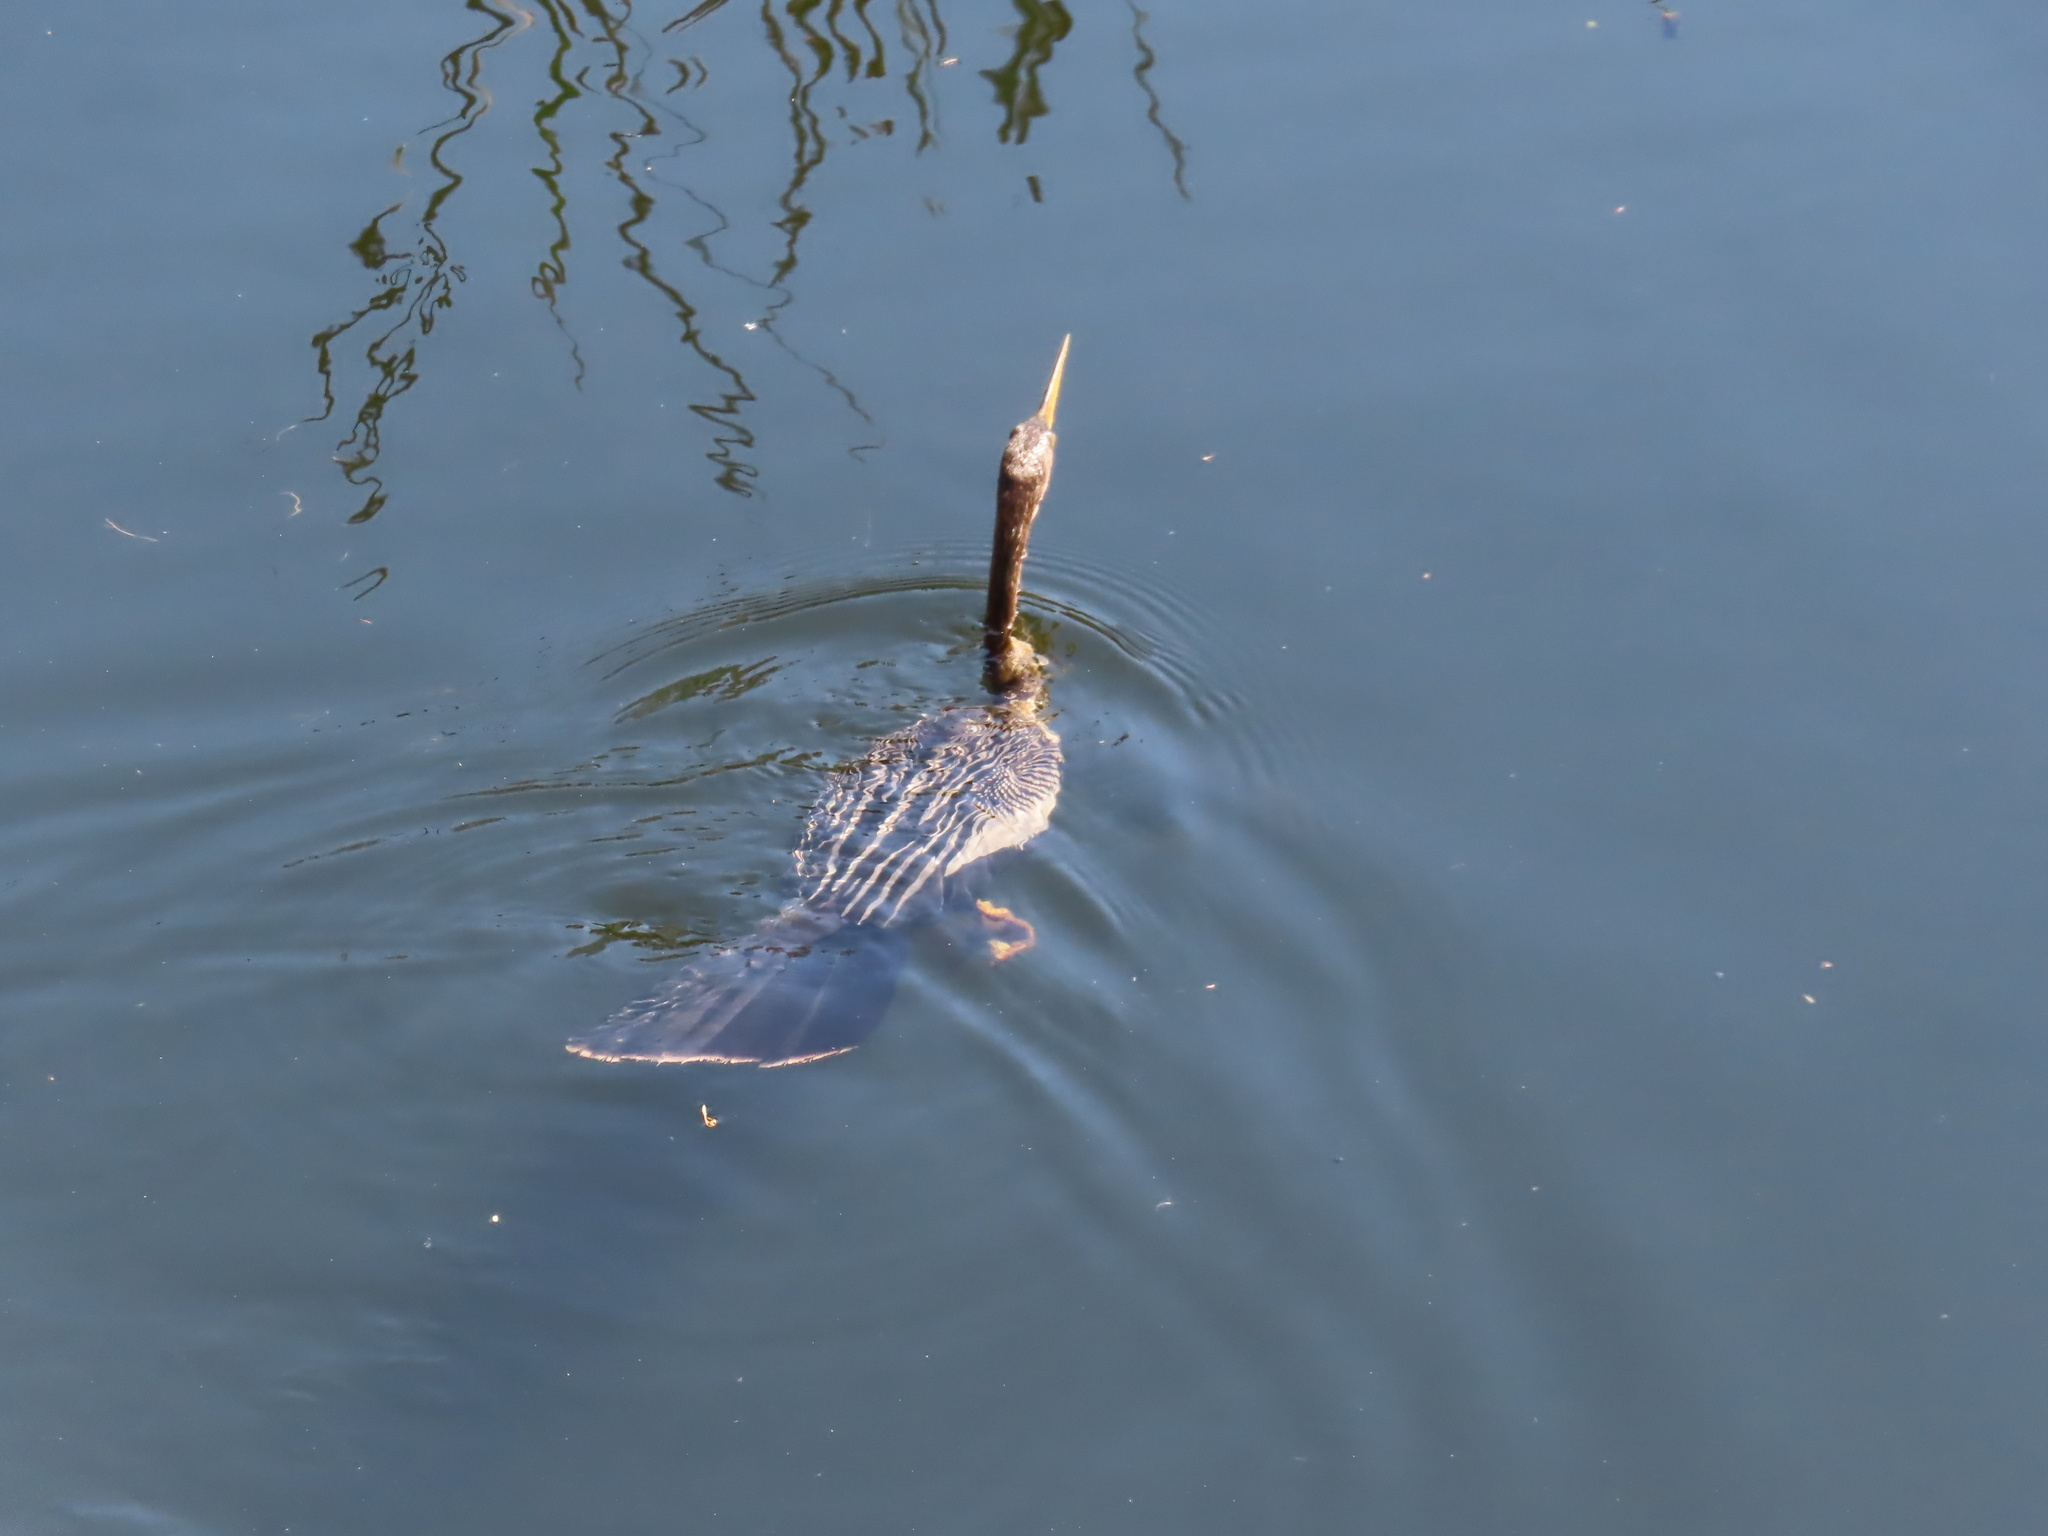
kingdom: Animalia
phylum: Chordata
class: Aves
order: Suliformes
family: Anhingidae
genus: Anhinga
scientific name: Anhinga anhinga
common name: Anhinga
